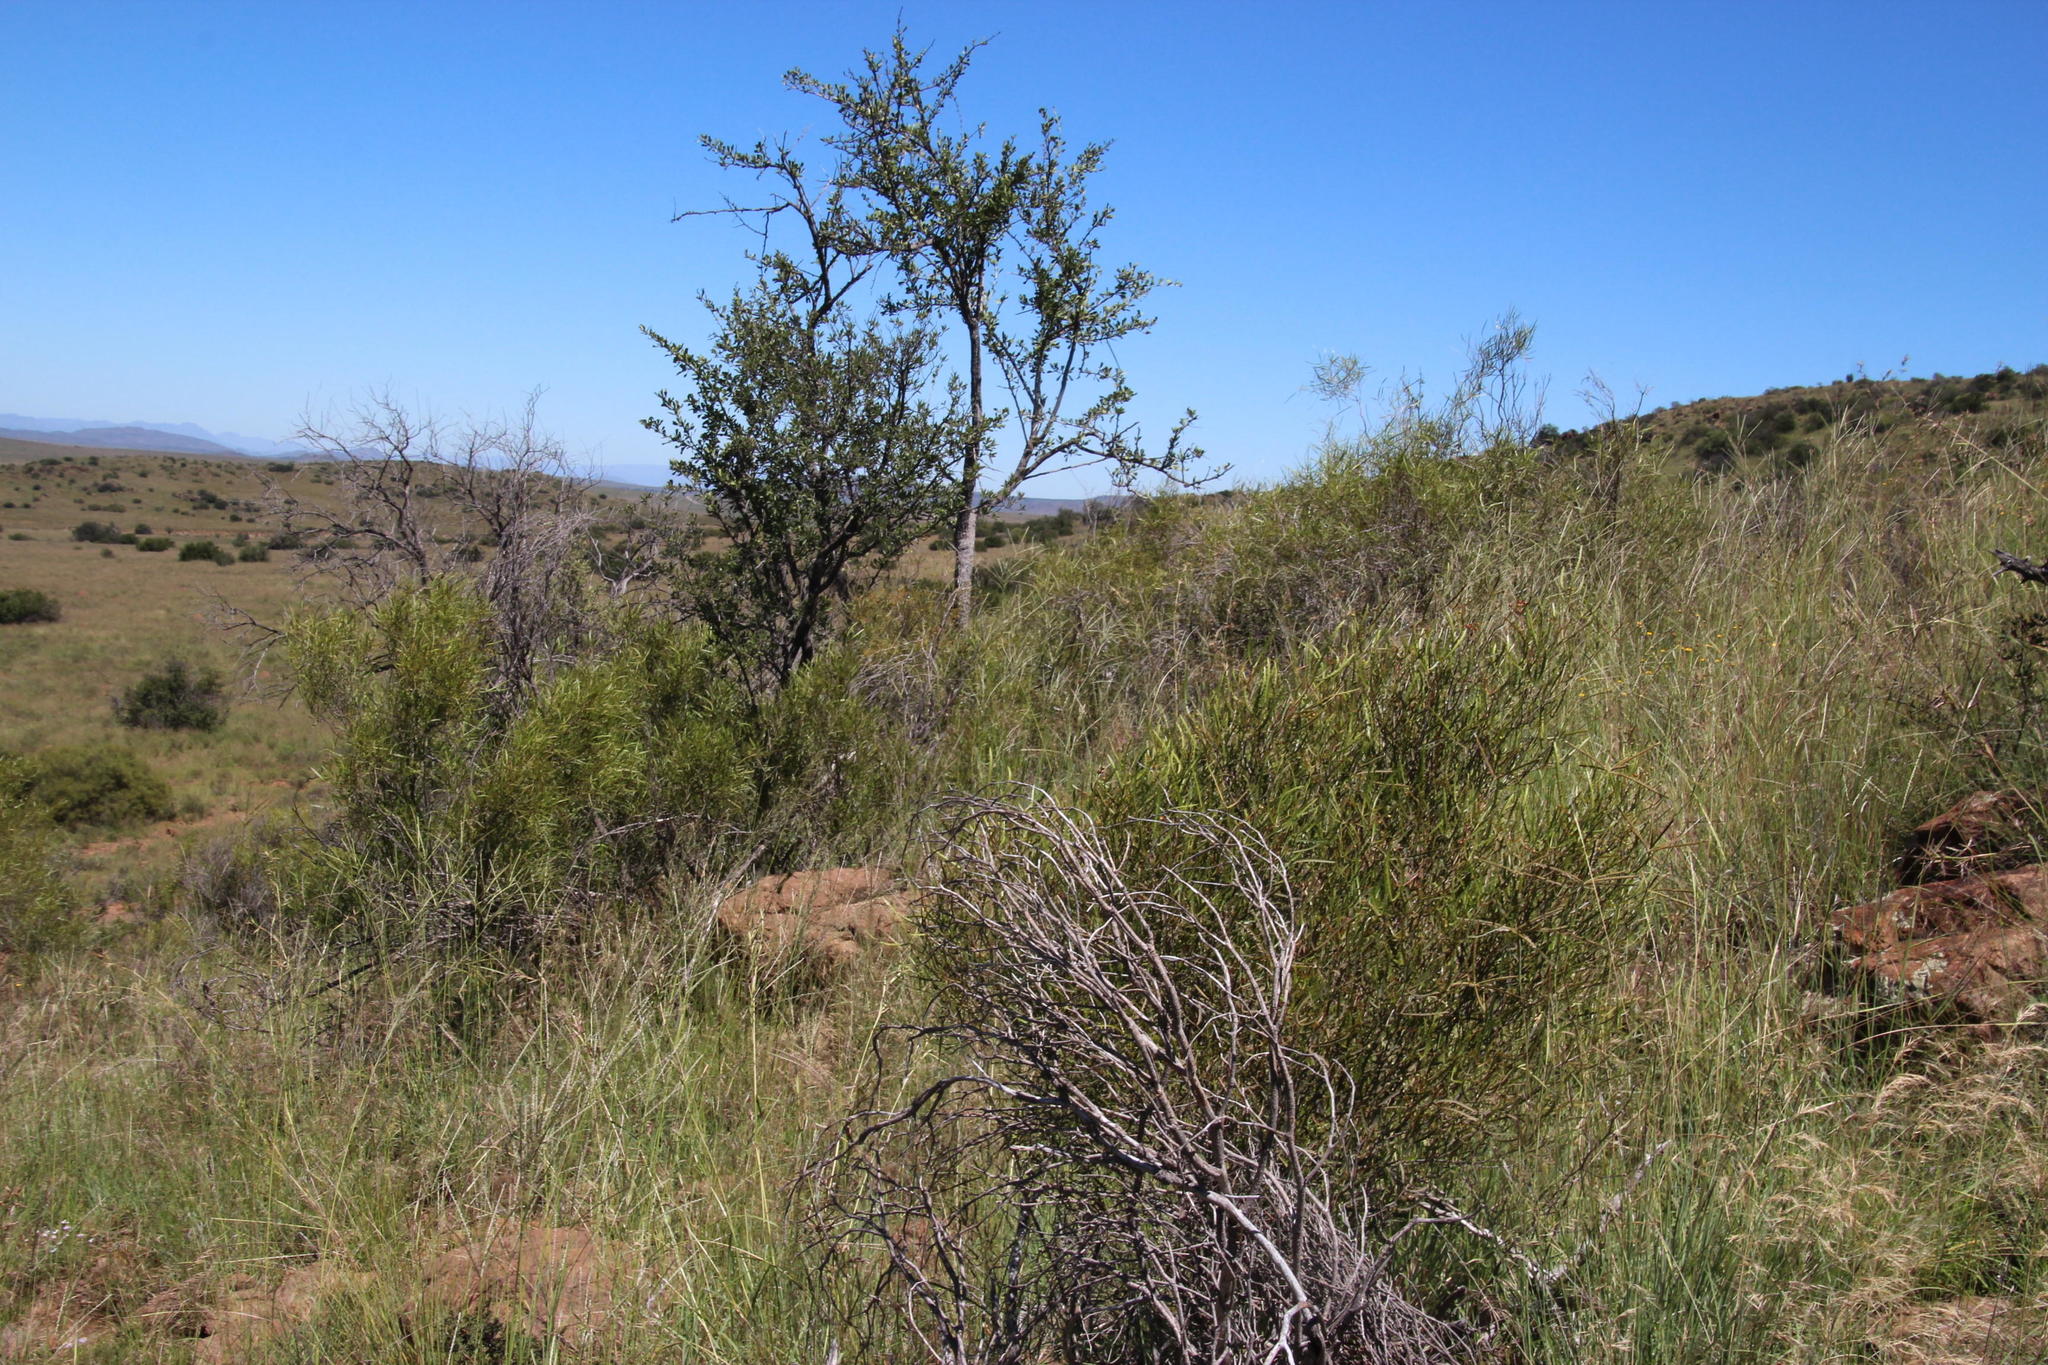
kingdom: Plantae
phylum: Tracheophyta
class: Magnoliopsida
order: Sapindales
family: Anacardiaceae
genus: Searsia
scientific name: Searsia erosa
